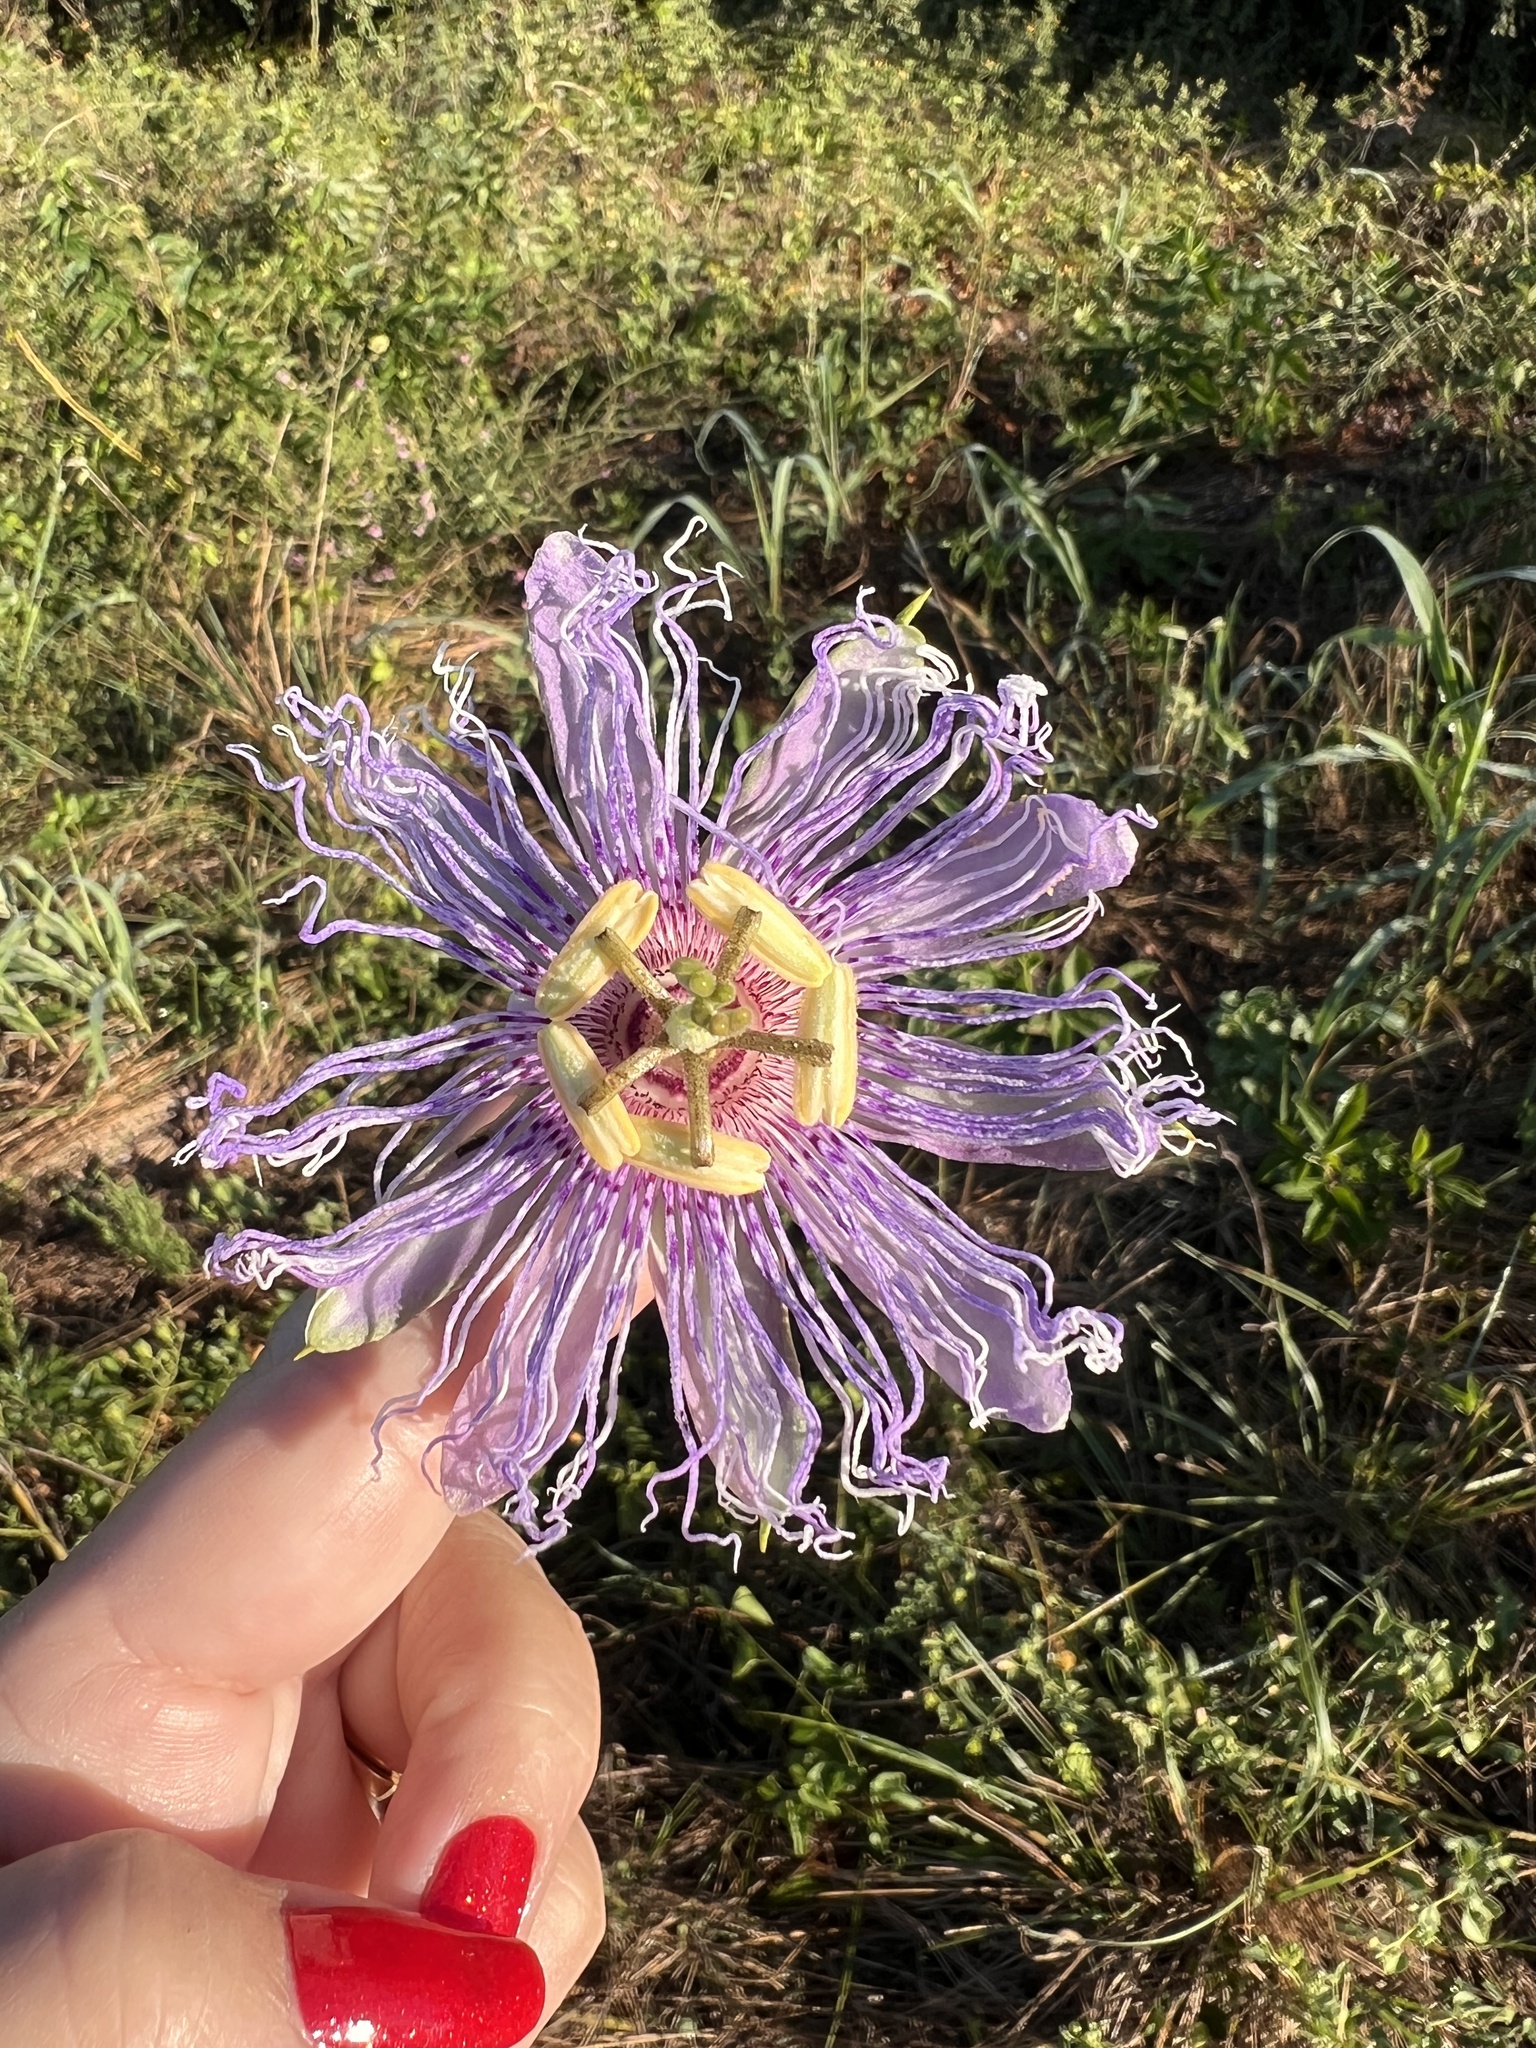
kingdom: Plantae
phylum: Tracheophyta
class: Magnoliopsida
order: Malpighiales
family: Passifloraceae
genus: Passiflora
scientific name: Passiflora incarnata
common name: Apricot-vine
